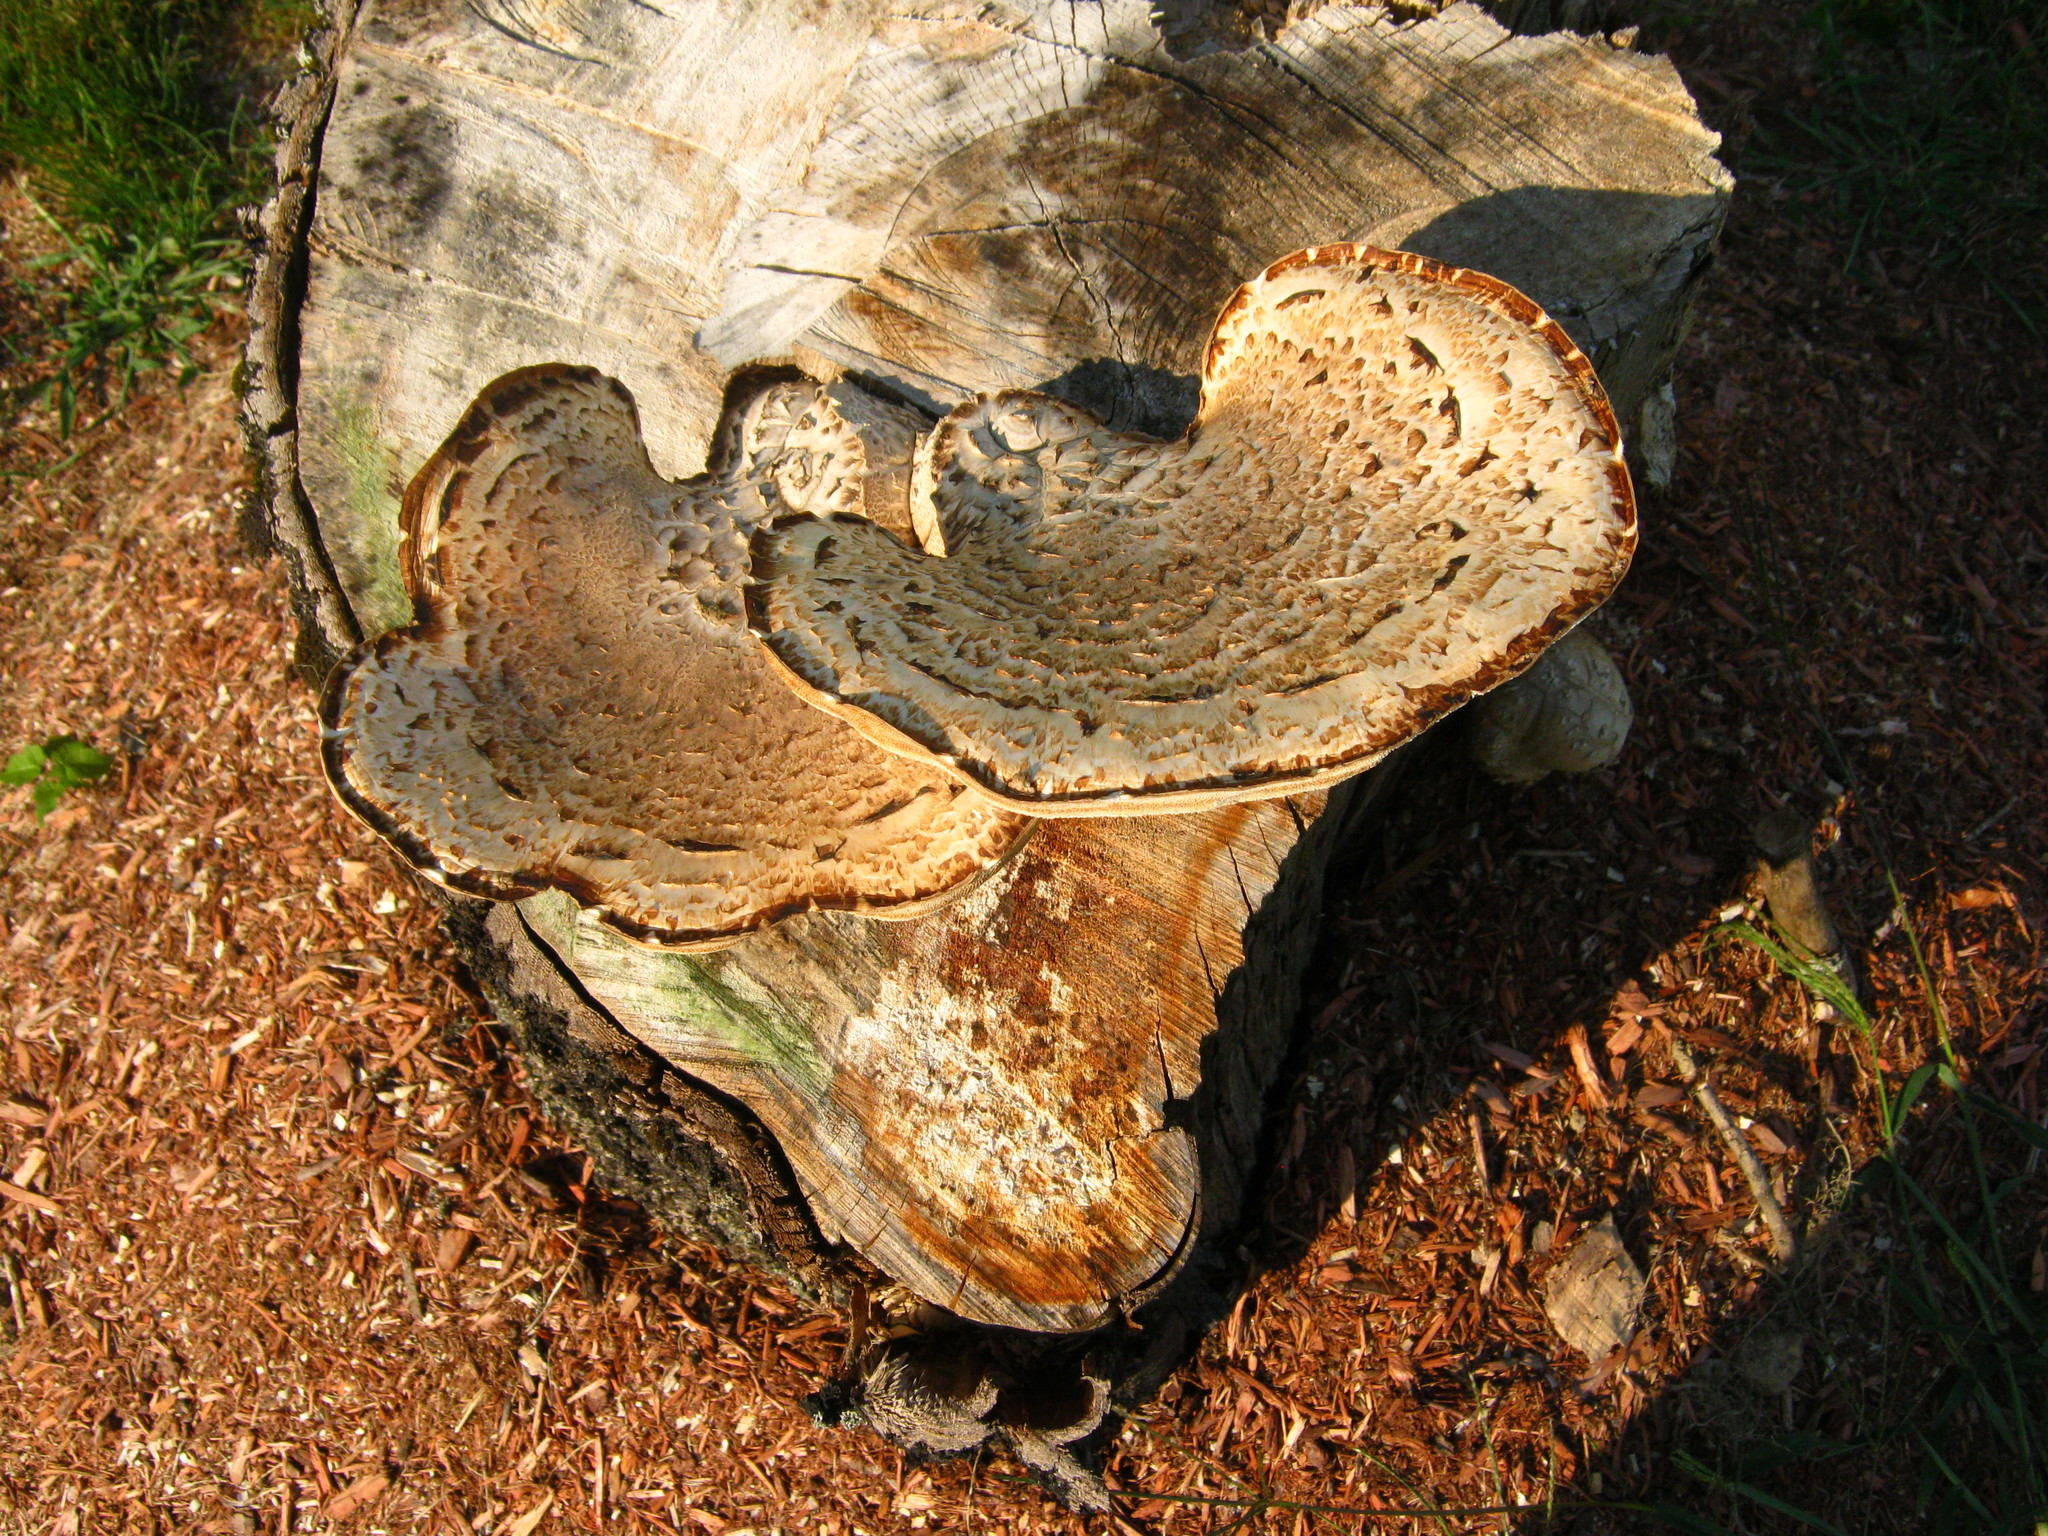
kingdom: Fungi
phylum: Basidiomycota
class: Agaricomycetes
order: Polyporales
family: Polyporaceae
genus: Cerioporus
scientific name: Cerioporus squamosus
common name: Dryad's saddle
